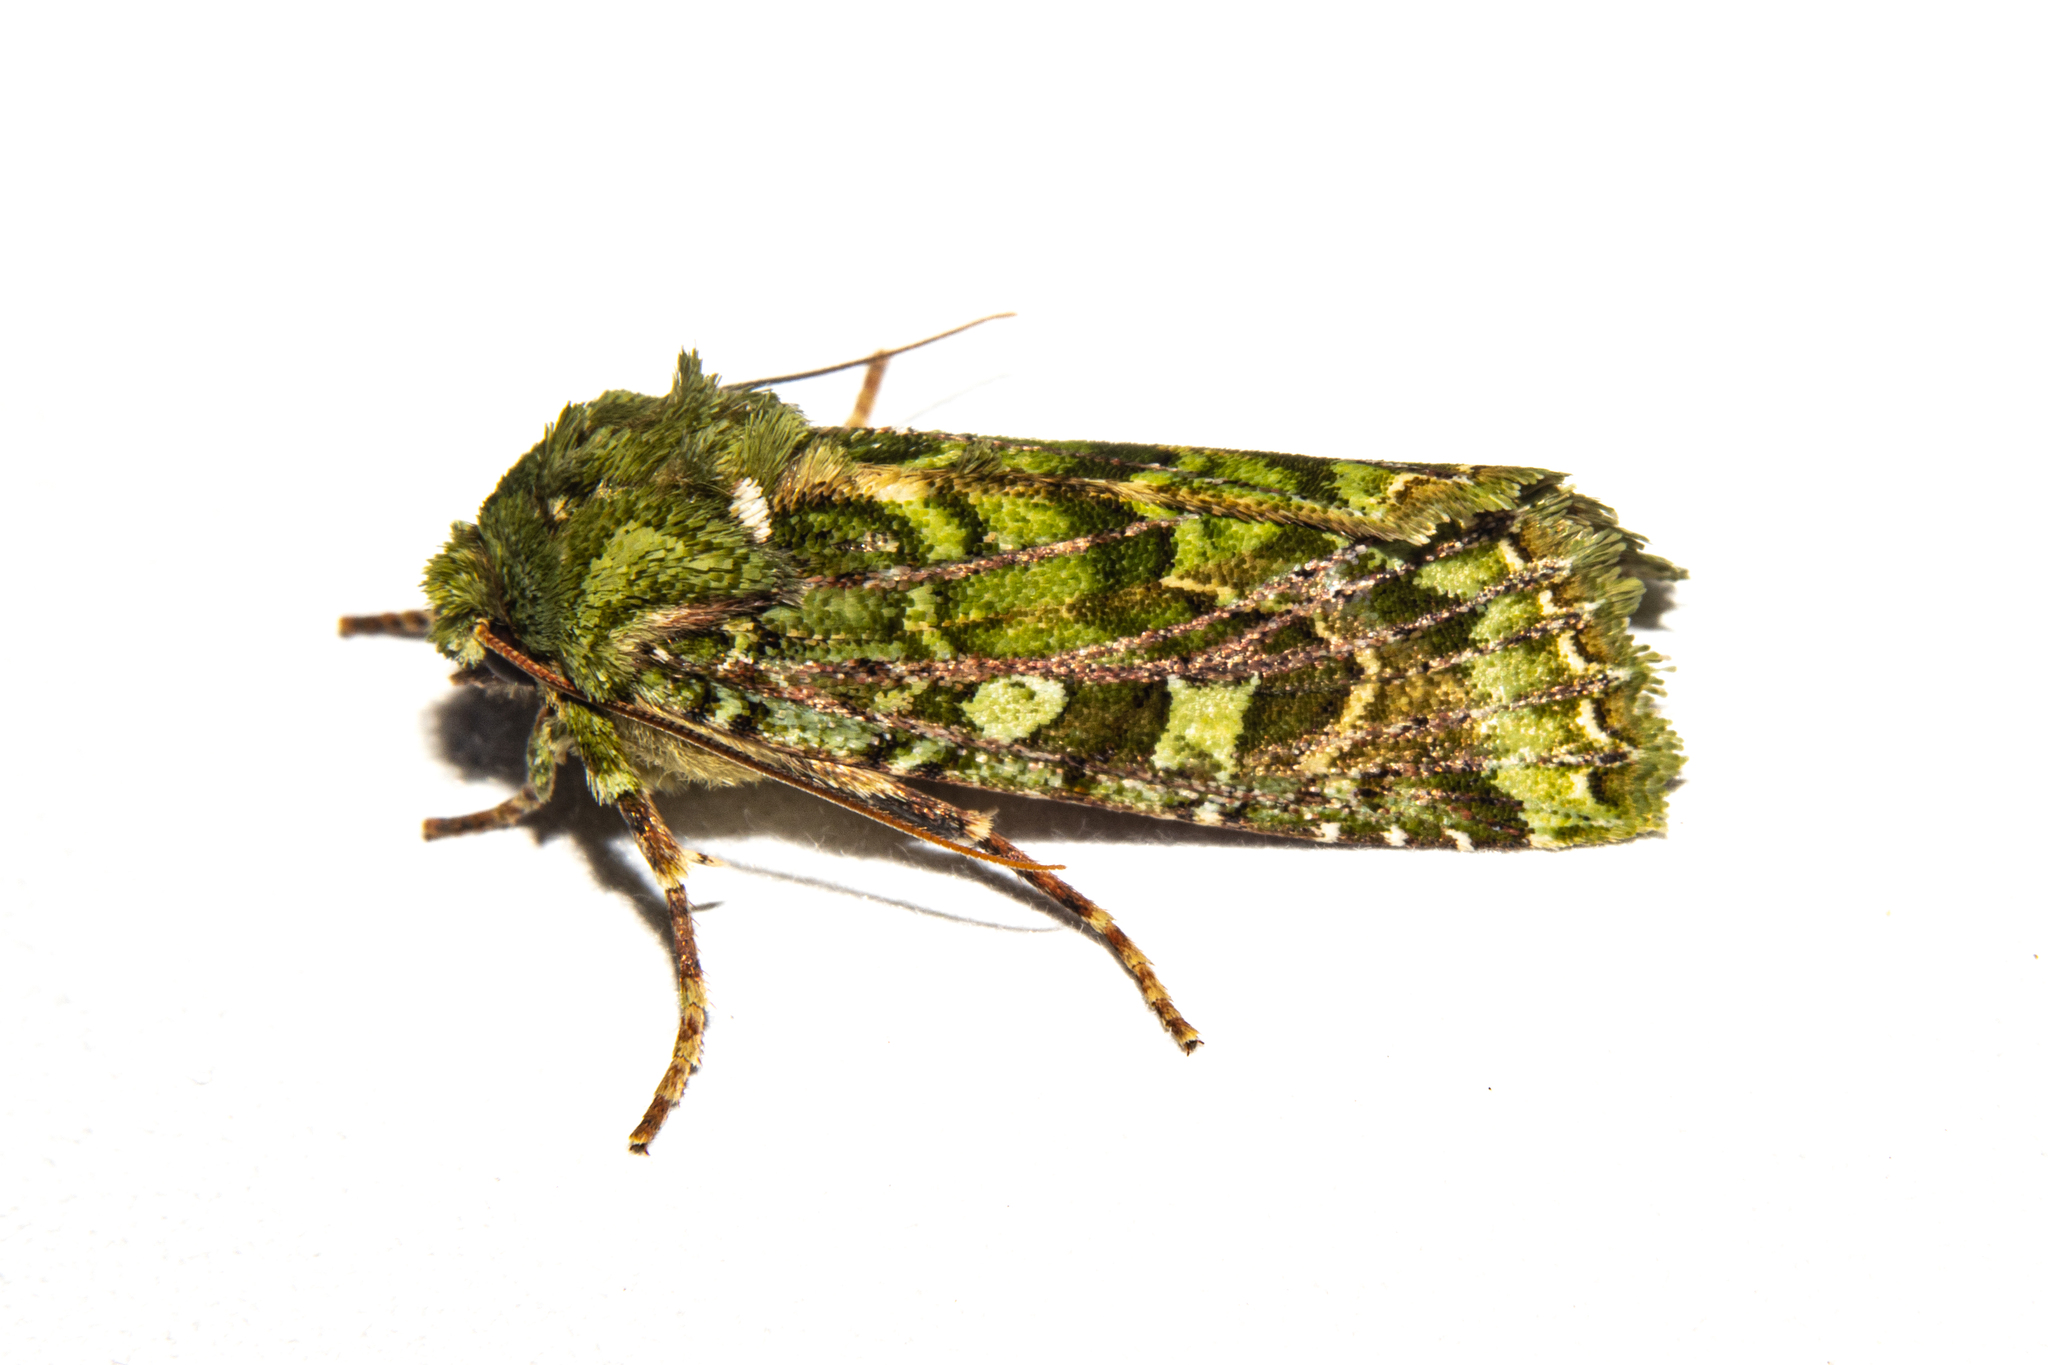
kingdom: Animalia
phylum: Arthropoda
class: Insecta
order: Lepidoptera
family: Noctuidae
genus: Feredayia
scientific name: Feredayia grammosa
